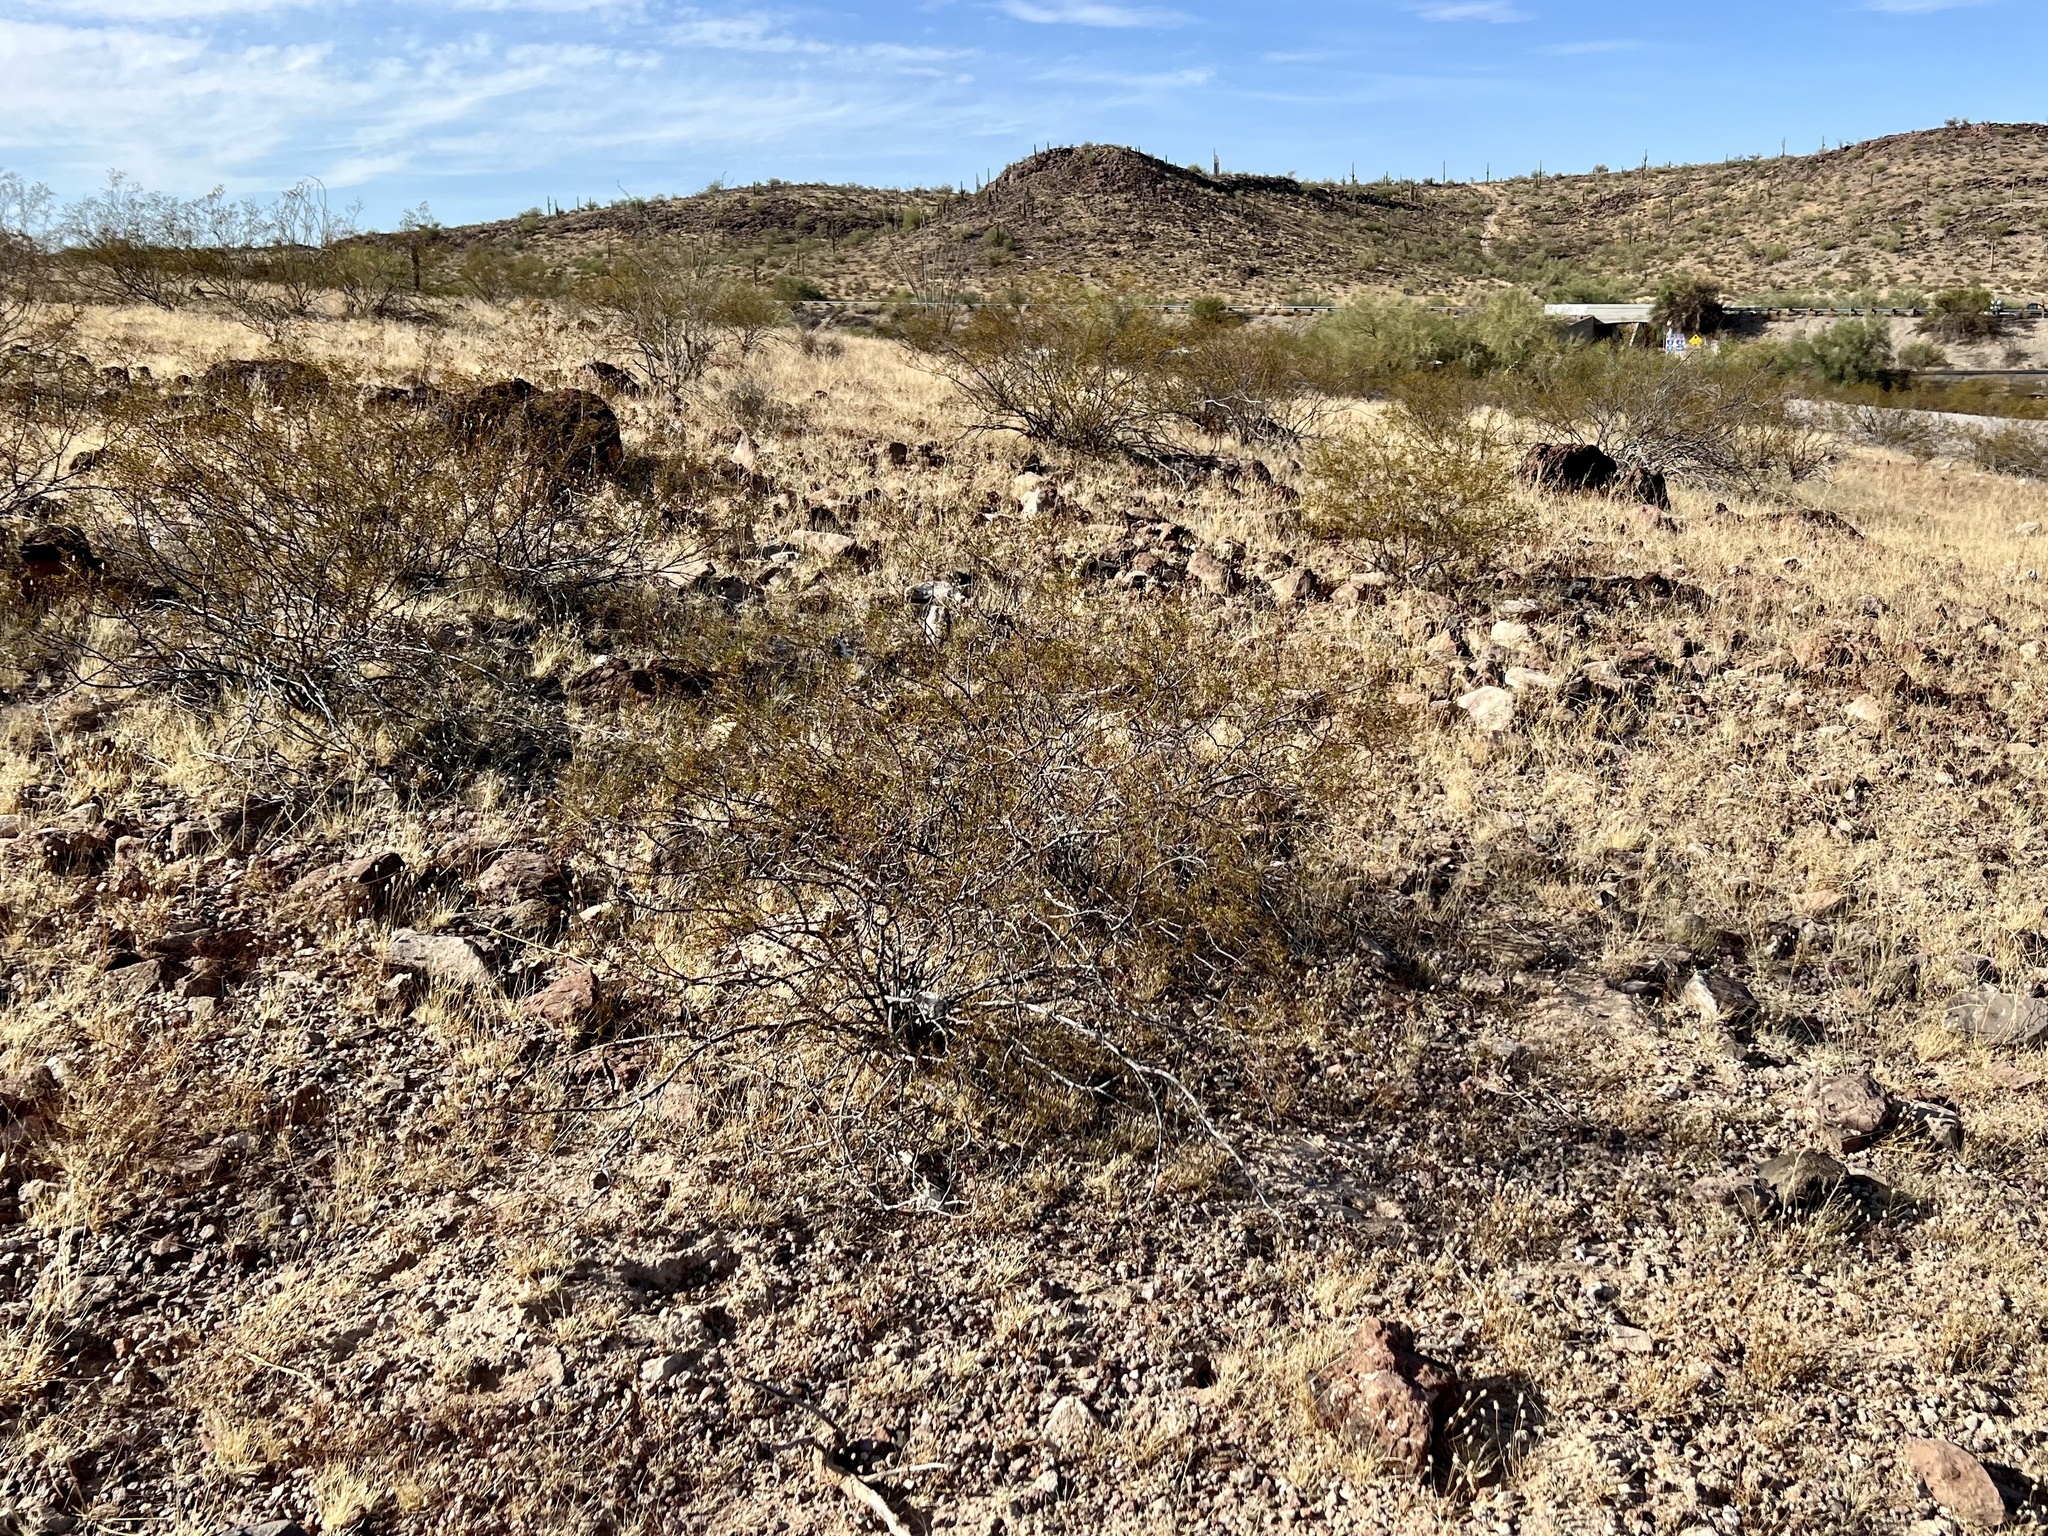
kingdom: Plantae
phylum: Tracheophyta
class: Magnoliopsida
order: Zygophyllales
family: Zygophyllaceae
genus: Larrea
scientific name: Larrea tridentata
